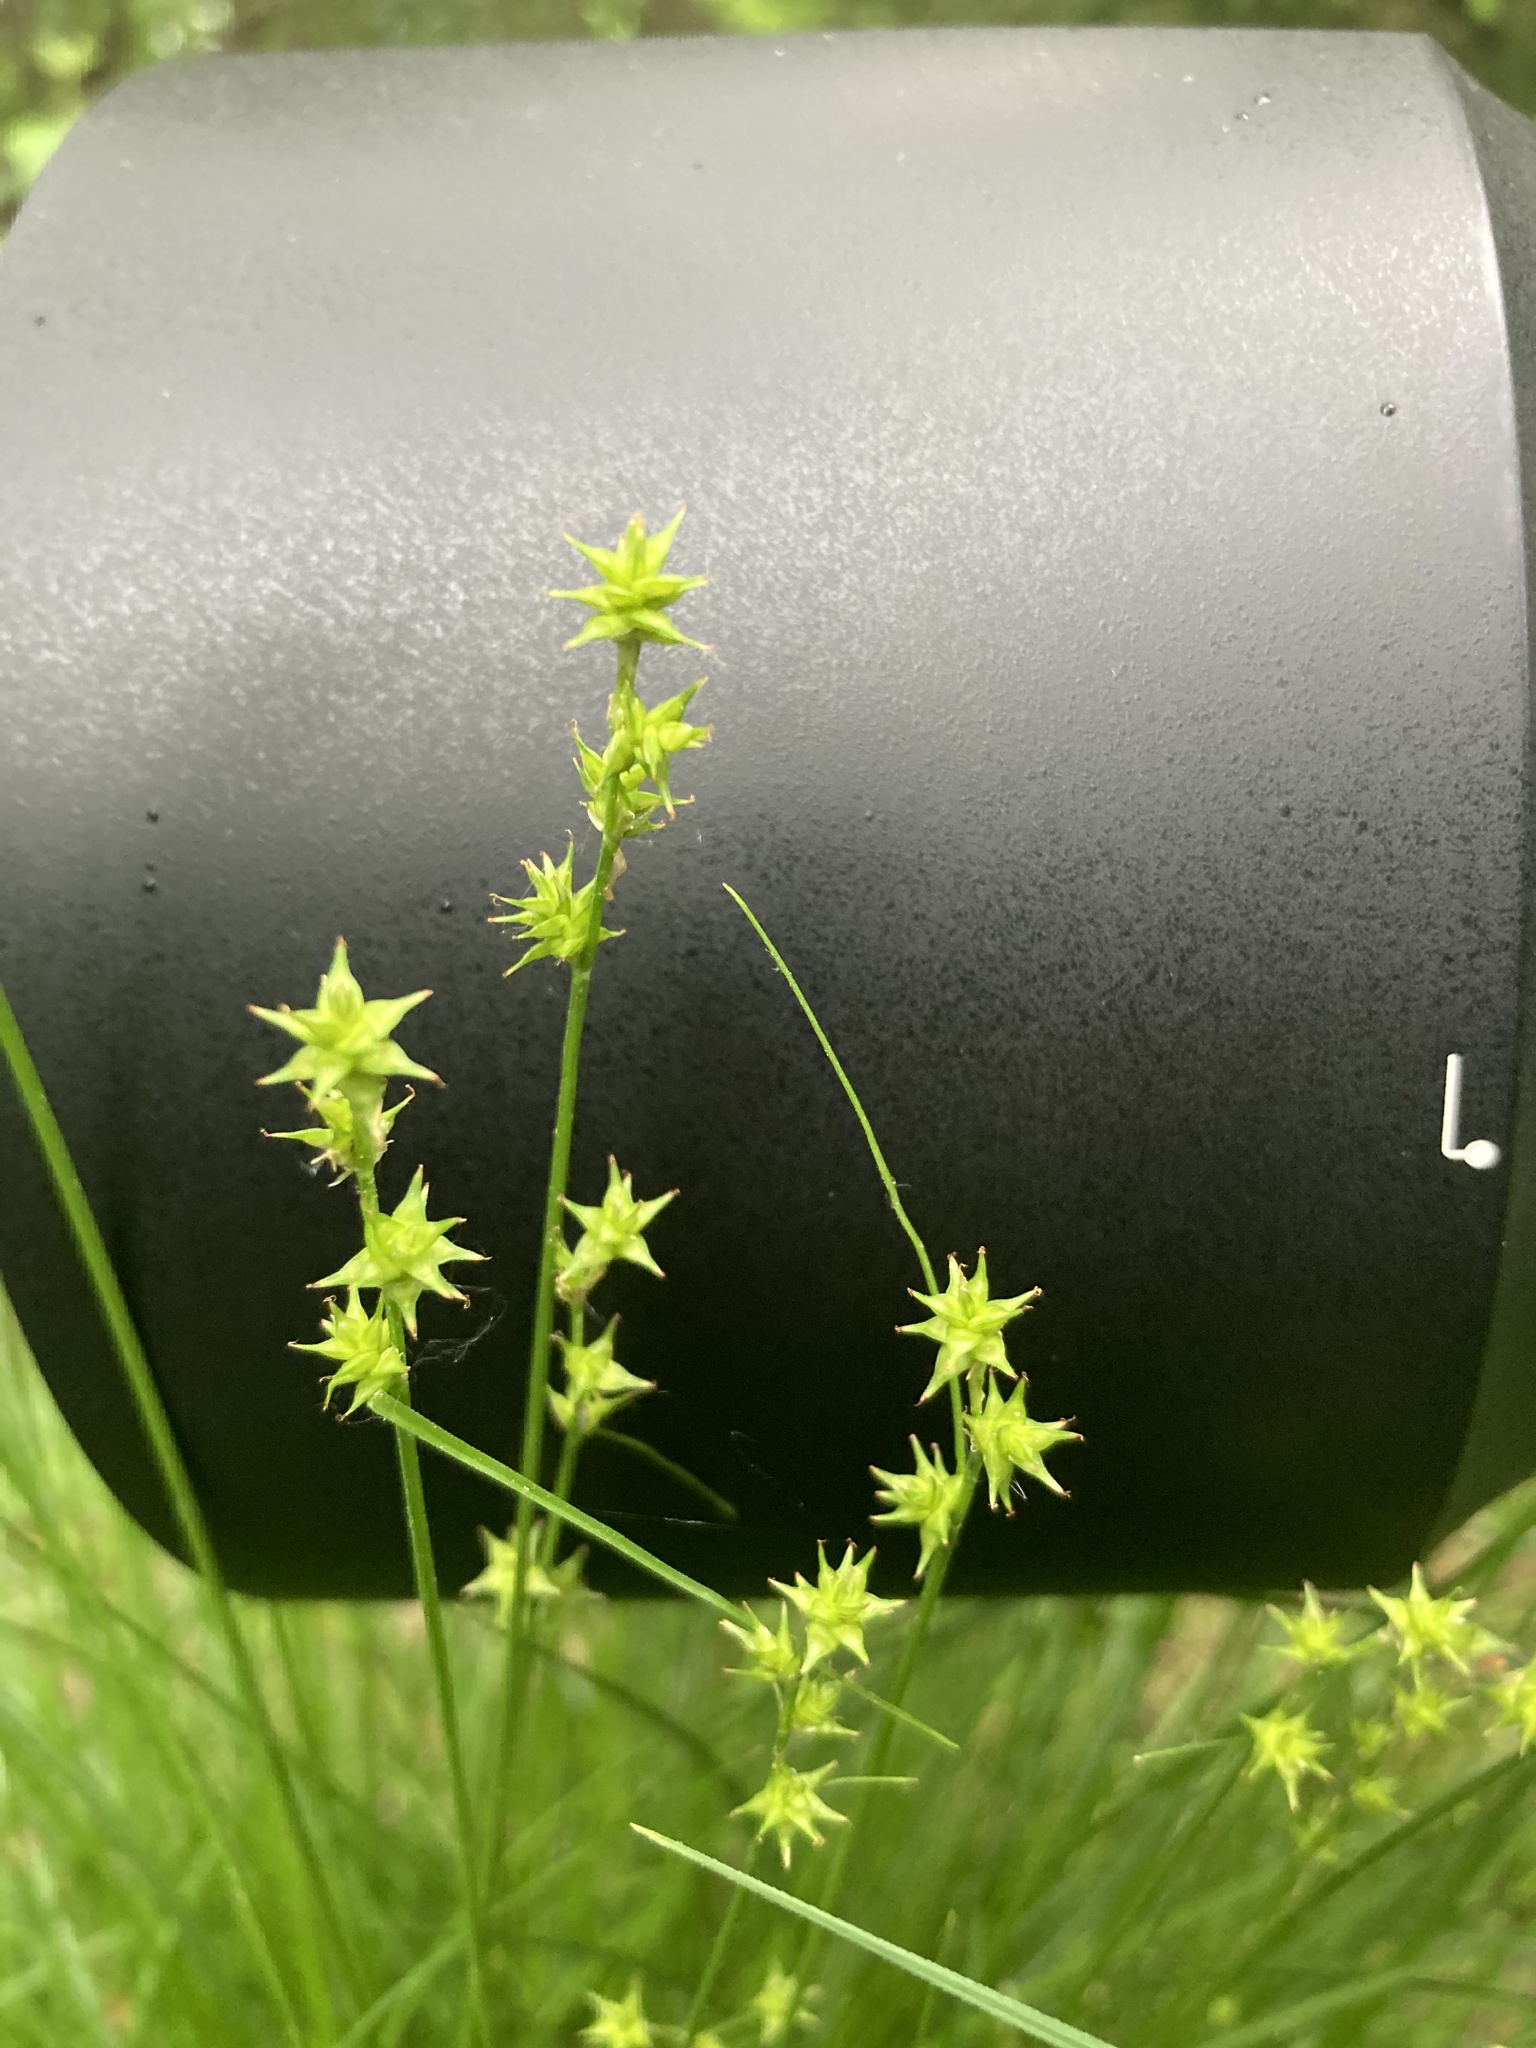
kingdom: Plantae
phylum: Tracheophyta
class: Liliopsida
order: Poales
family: Cyperaceae
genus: Carex
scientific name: Carex echinata
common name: Star sedge
